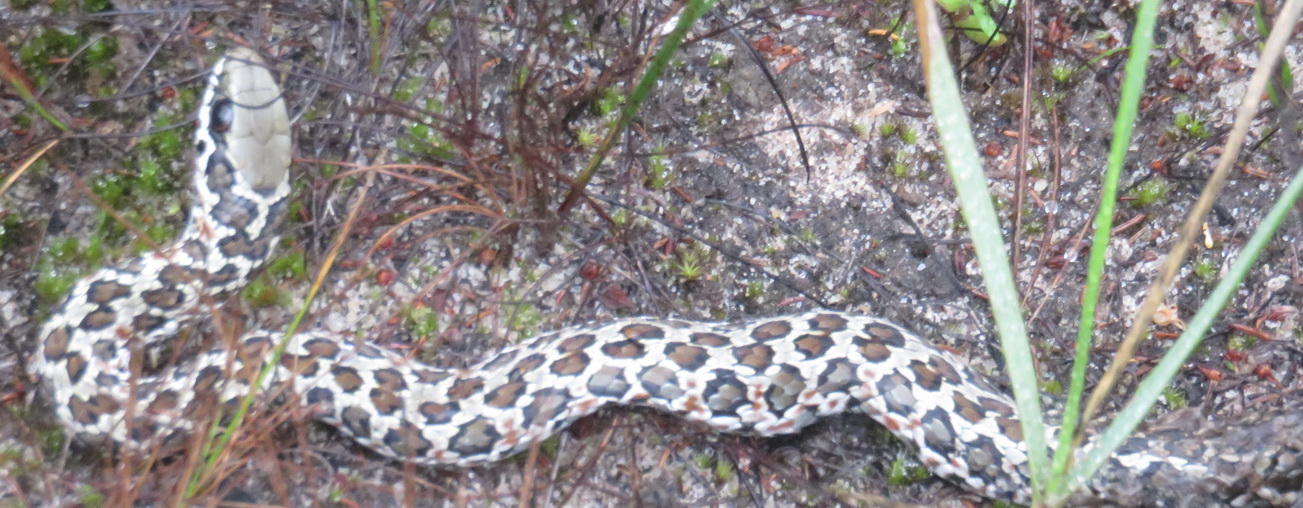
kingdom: Animalia
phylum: Chordata
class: Squamata
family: Psammophiidae
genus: Psammophylax
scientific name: Psammophylax rhombeatus
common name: Rhombic skaapsteker
